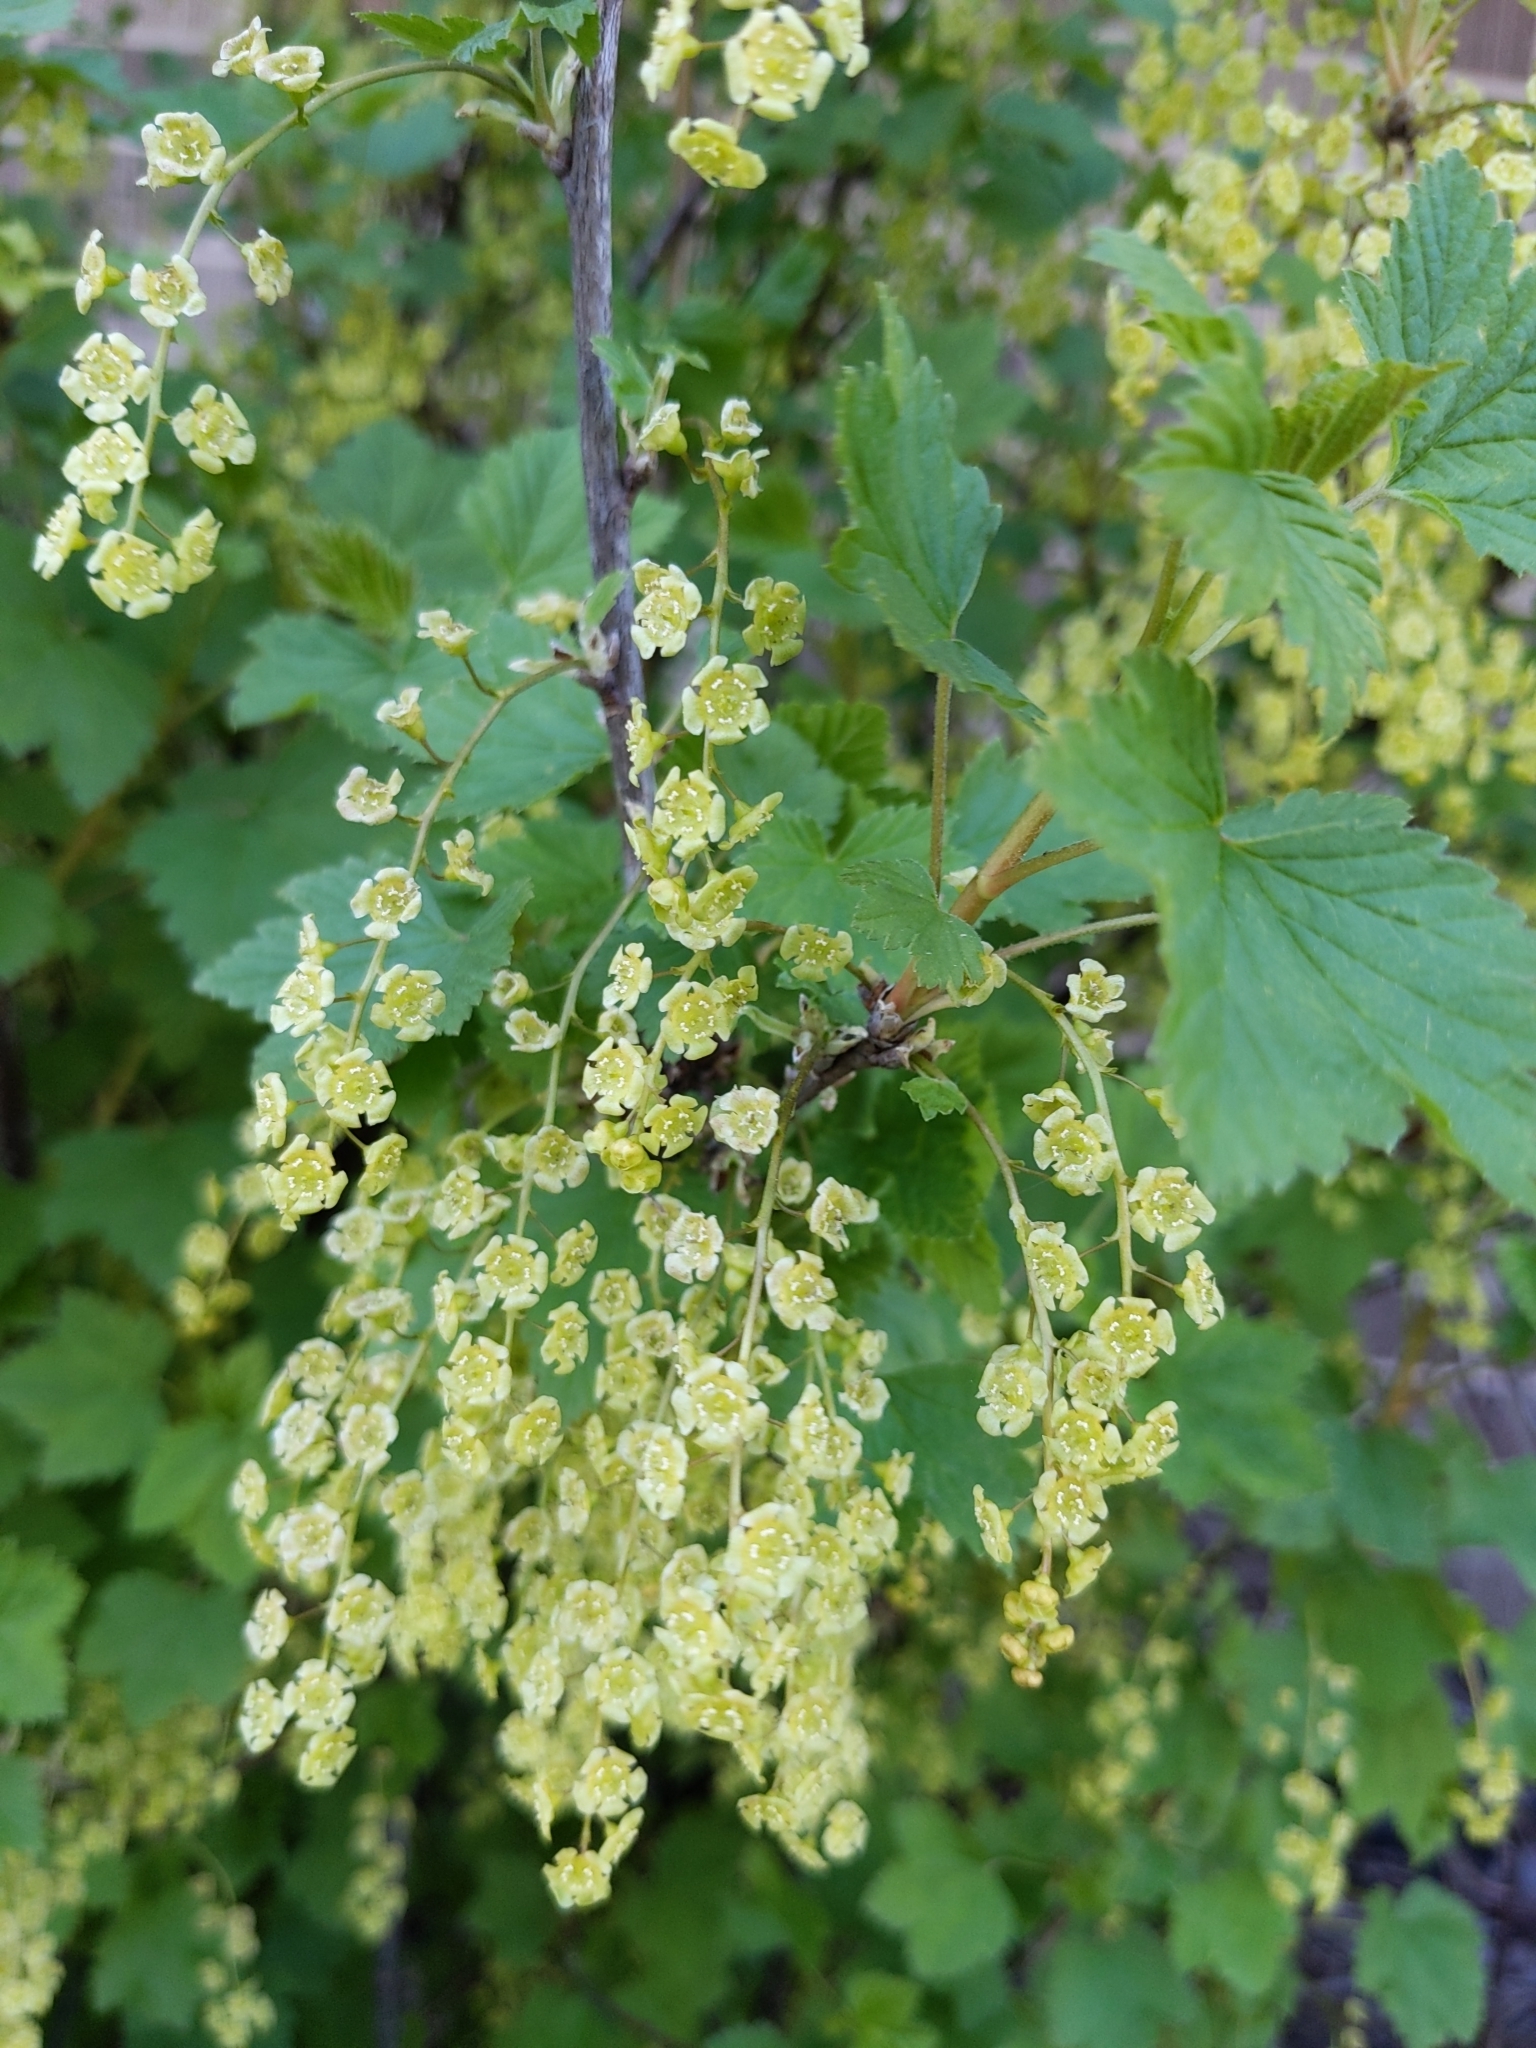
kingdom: Plantae
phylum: Tracheophyta
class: Magnoliopsida
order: Saxifragales
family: Grossulariaceae
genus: Ribes
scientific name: Ribes rubrum
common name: Red currant
